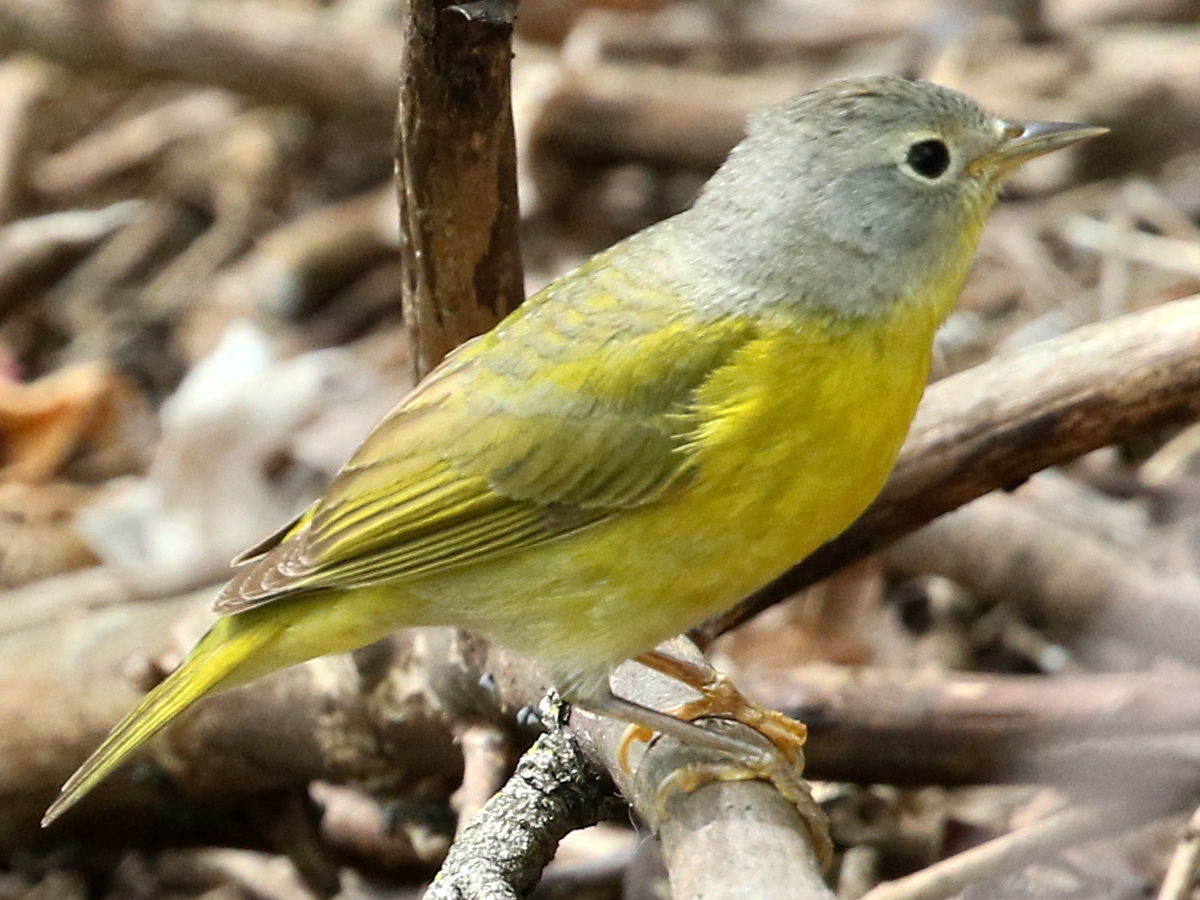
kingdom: Animalia
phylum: Chordata
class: Aves
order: Passeriformes
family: Parulidae
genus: Leiothlypis
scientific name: Leiothlypis ruficapilla
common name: Nashville warbler
